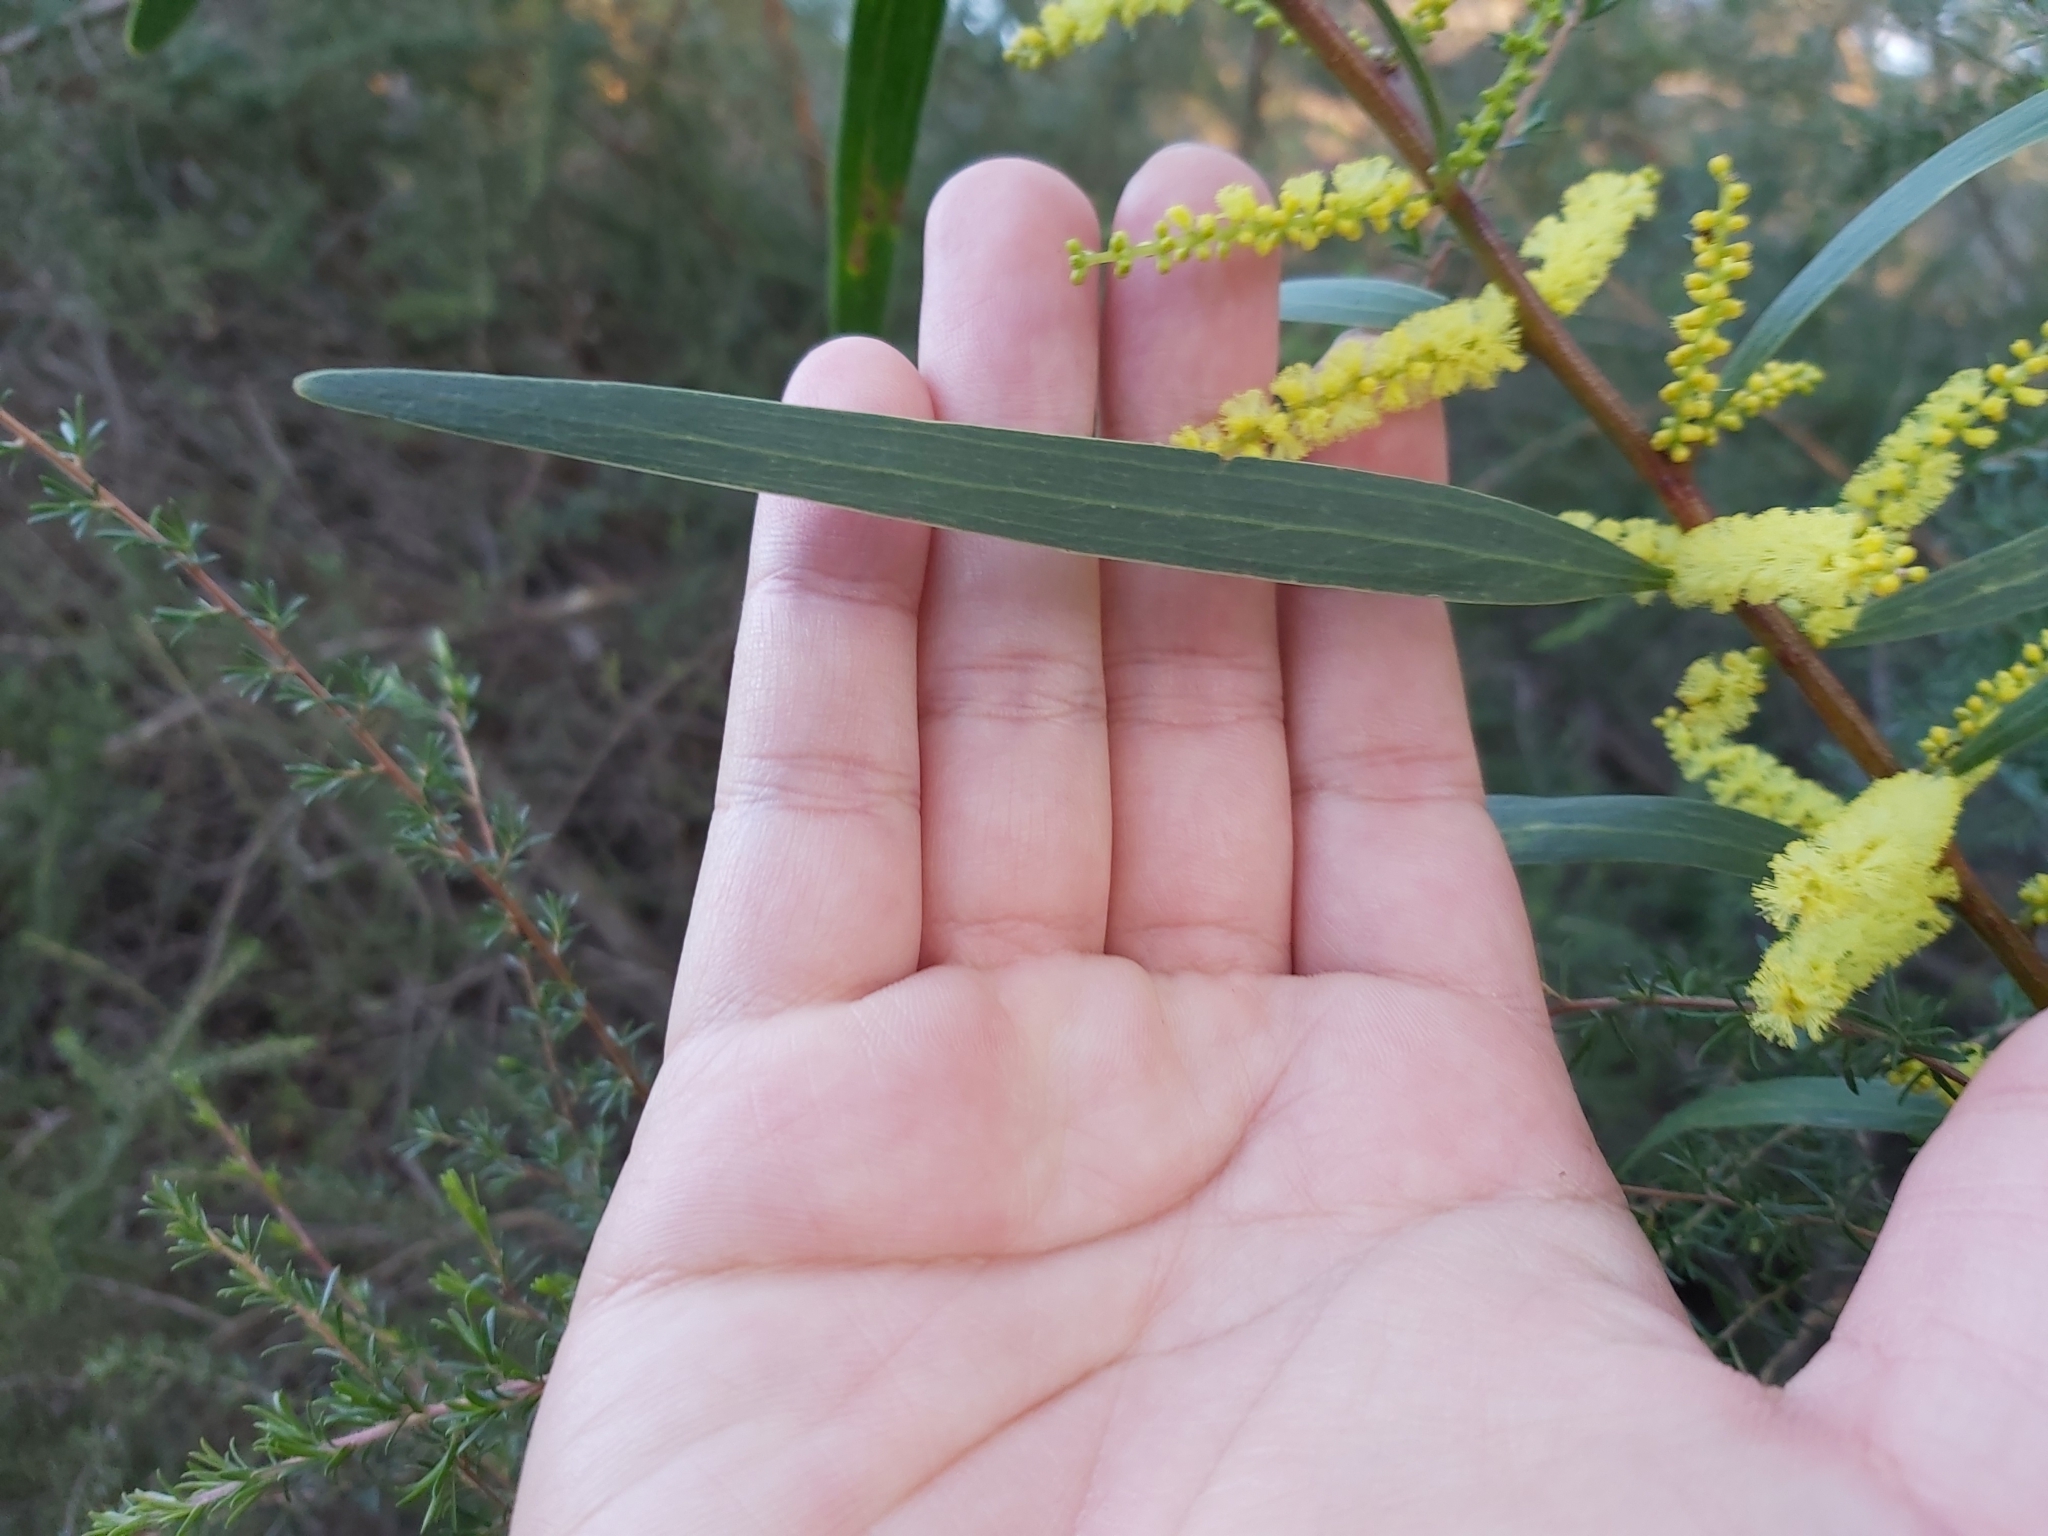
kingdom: Plantae
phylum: Tracheophyta
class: Magnoliopsida
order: Fabales
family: Fabaceae
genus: Acacia
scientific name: Acacia longifolia
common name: Sydney golden wattle
